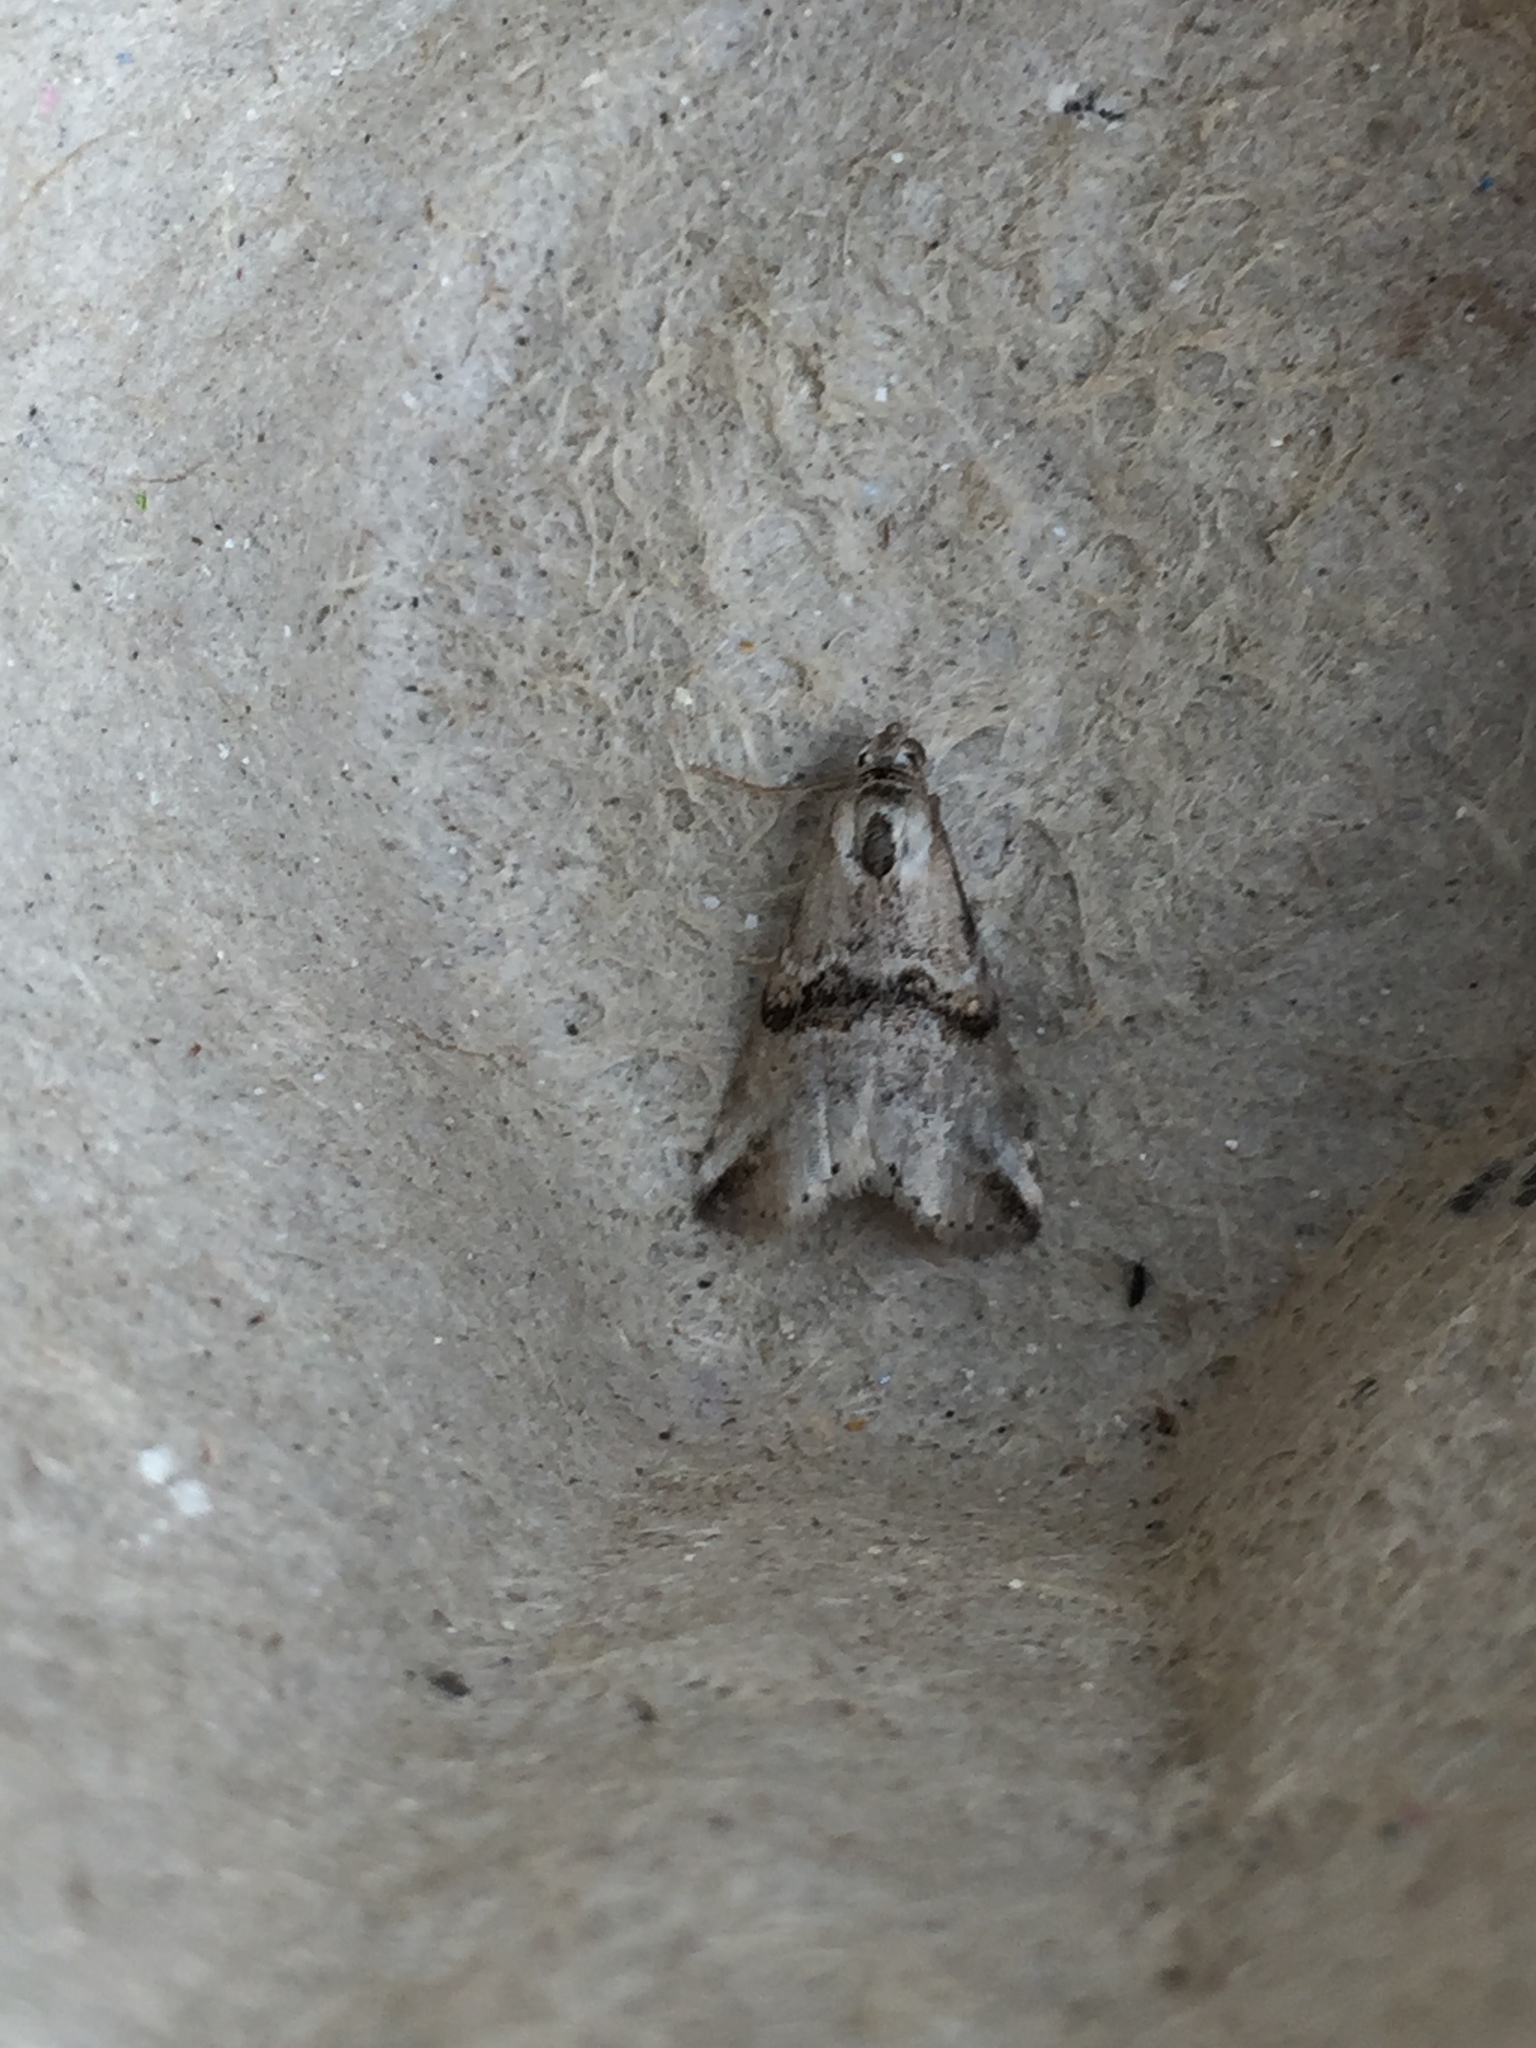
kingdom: Animalia
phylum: Arthropoda
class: Insecta
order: Lepidoptera
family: Erebidae
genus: Zebeeba
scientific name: Zebeeba falsalis
